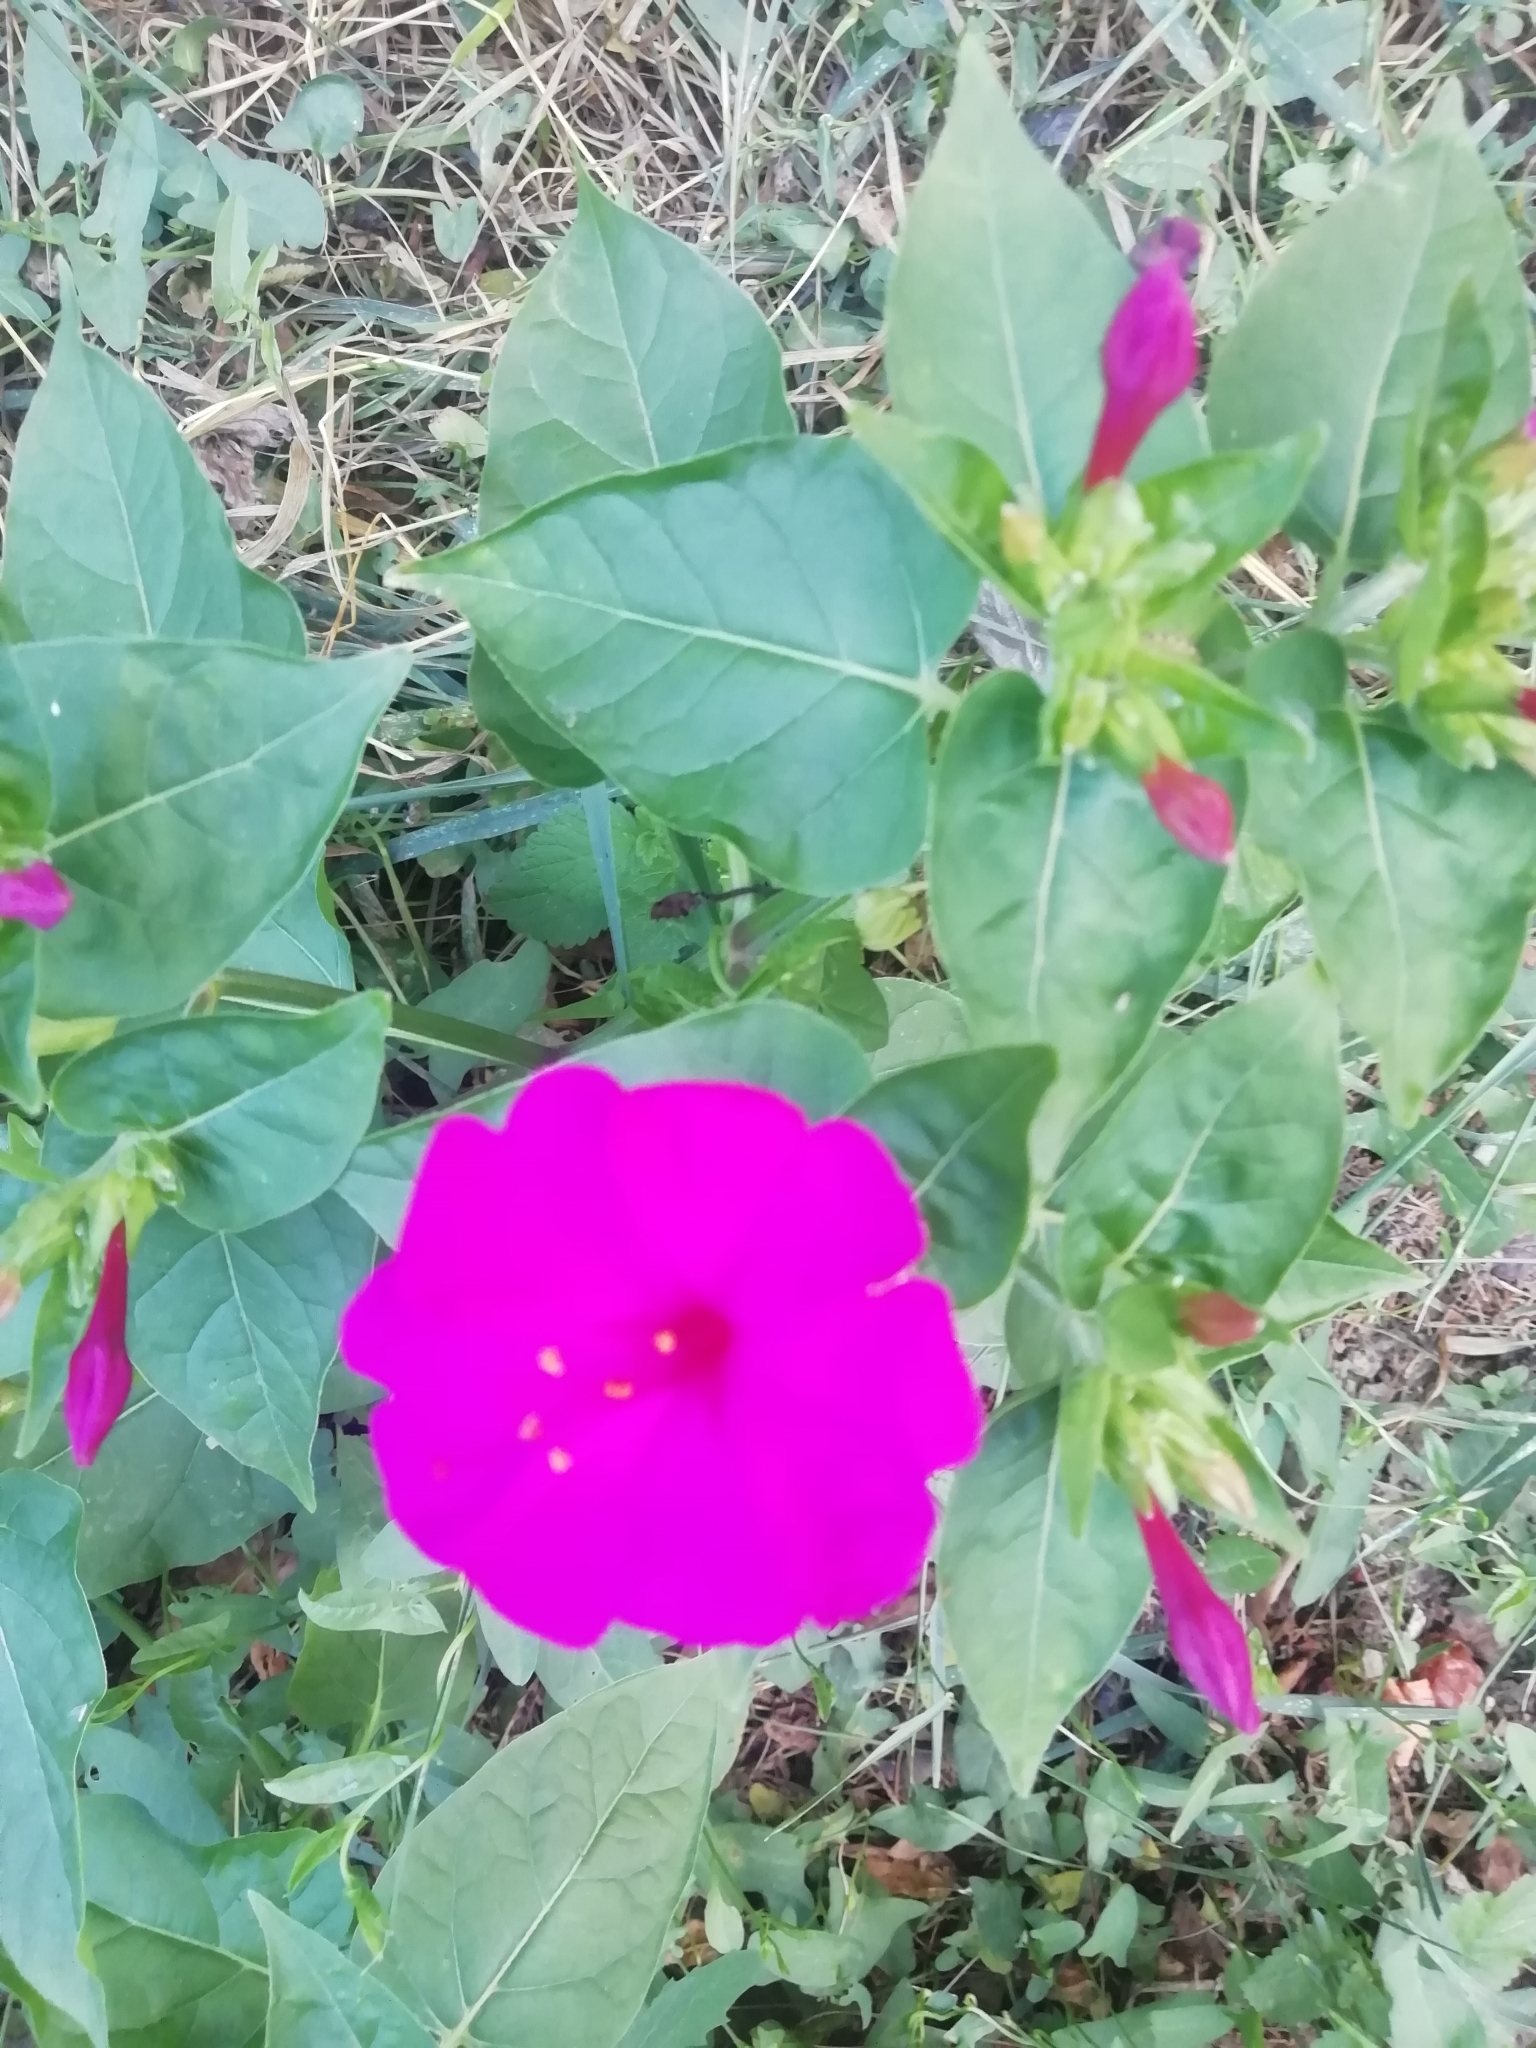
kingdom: Plantae
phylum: Tracheophyta
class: Magnoliopsida
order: Caryophyllales
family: Nyctaginaceae
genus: Mirabilis
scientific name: Mirabilis jalapa
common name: Marvel-of-peru
